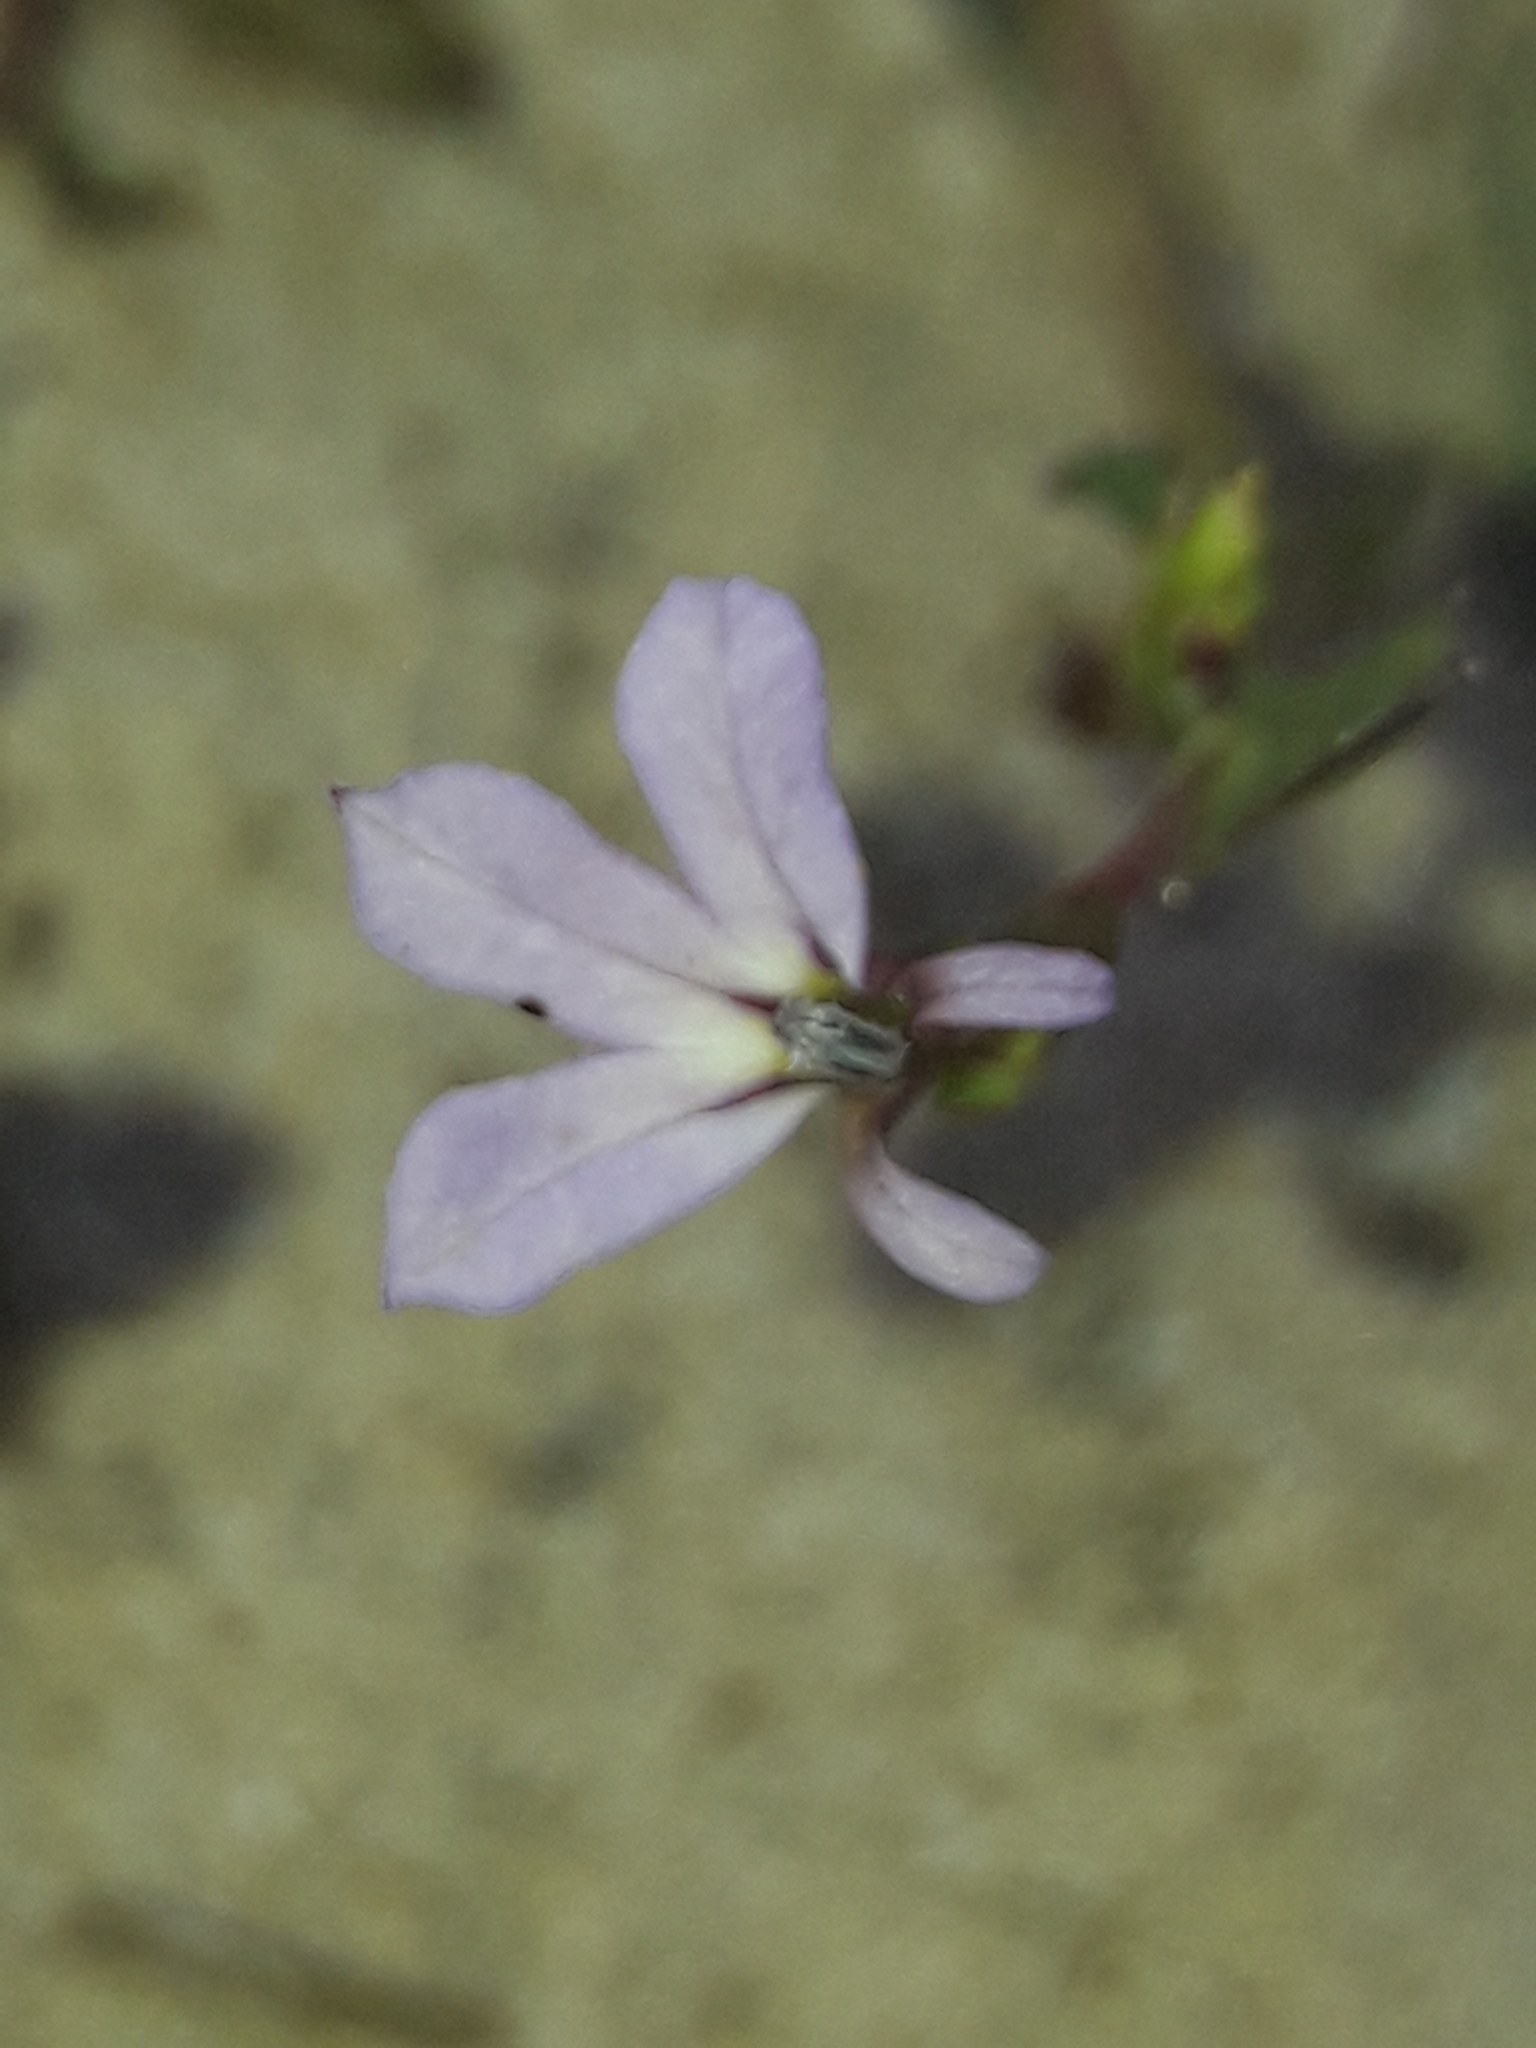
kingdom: Plantae
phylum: Tracheophyta
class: Magnoliopsida
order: Asterales
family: Campanulaceae
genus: Lobelia
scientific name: Lobelia anceps
